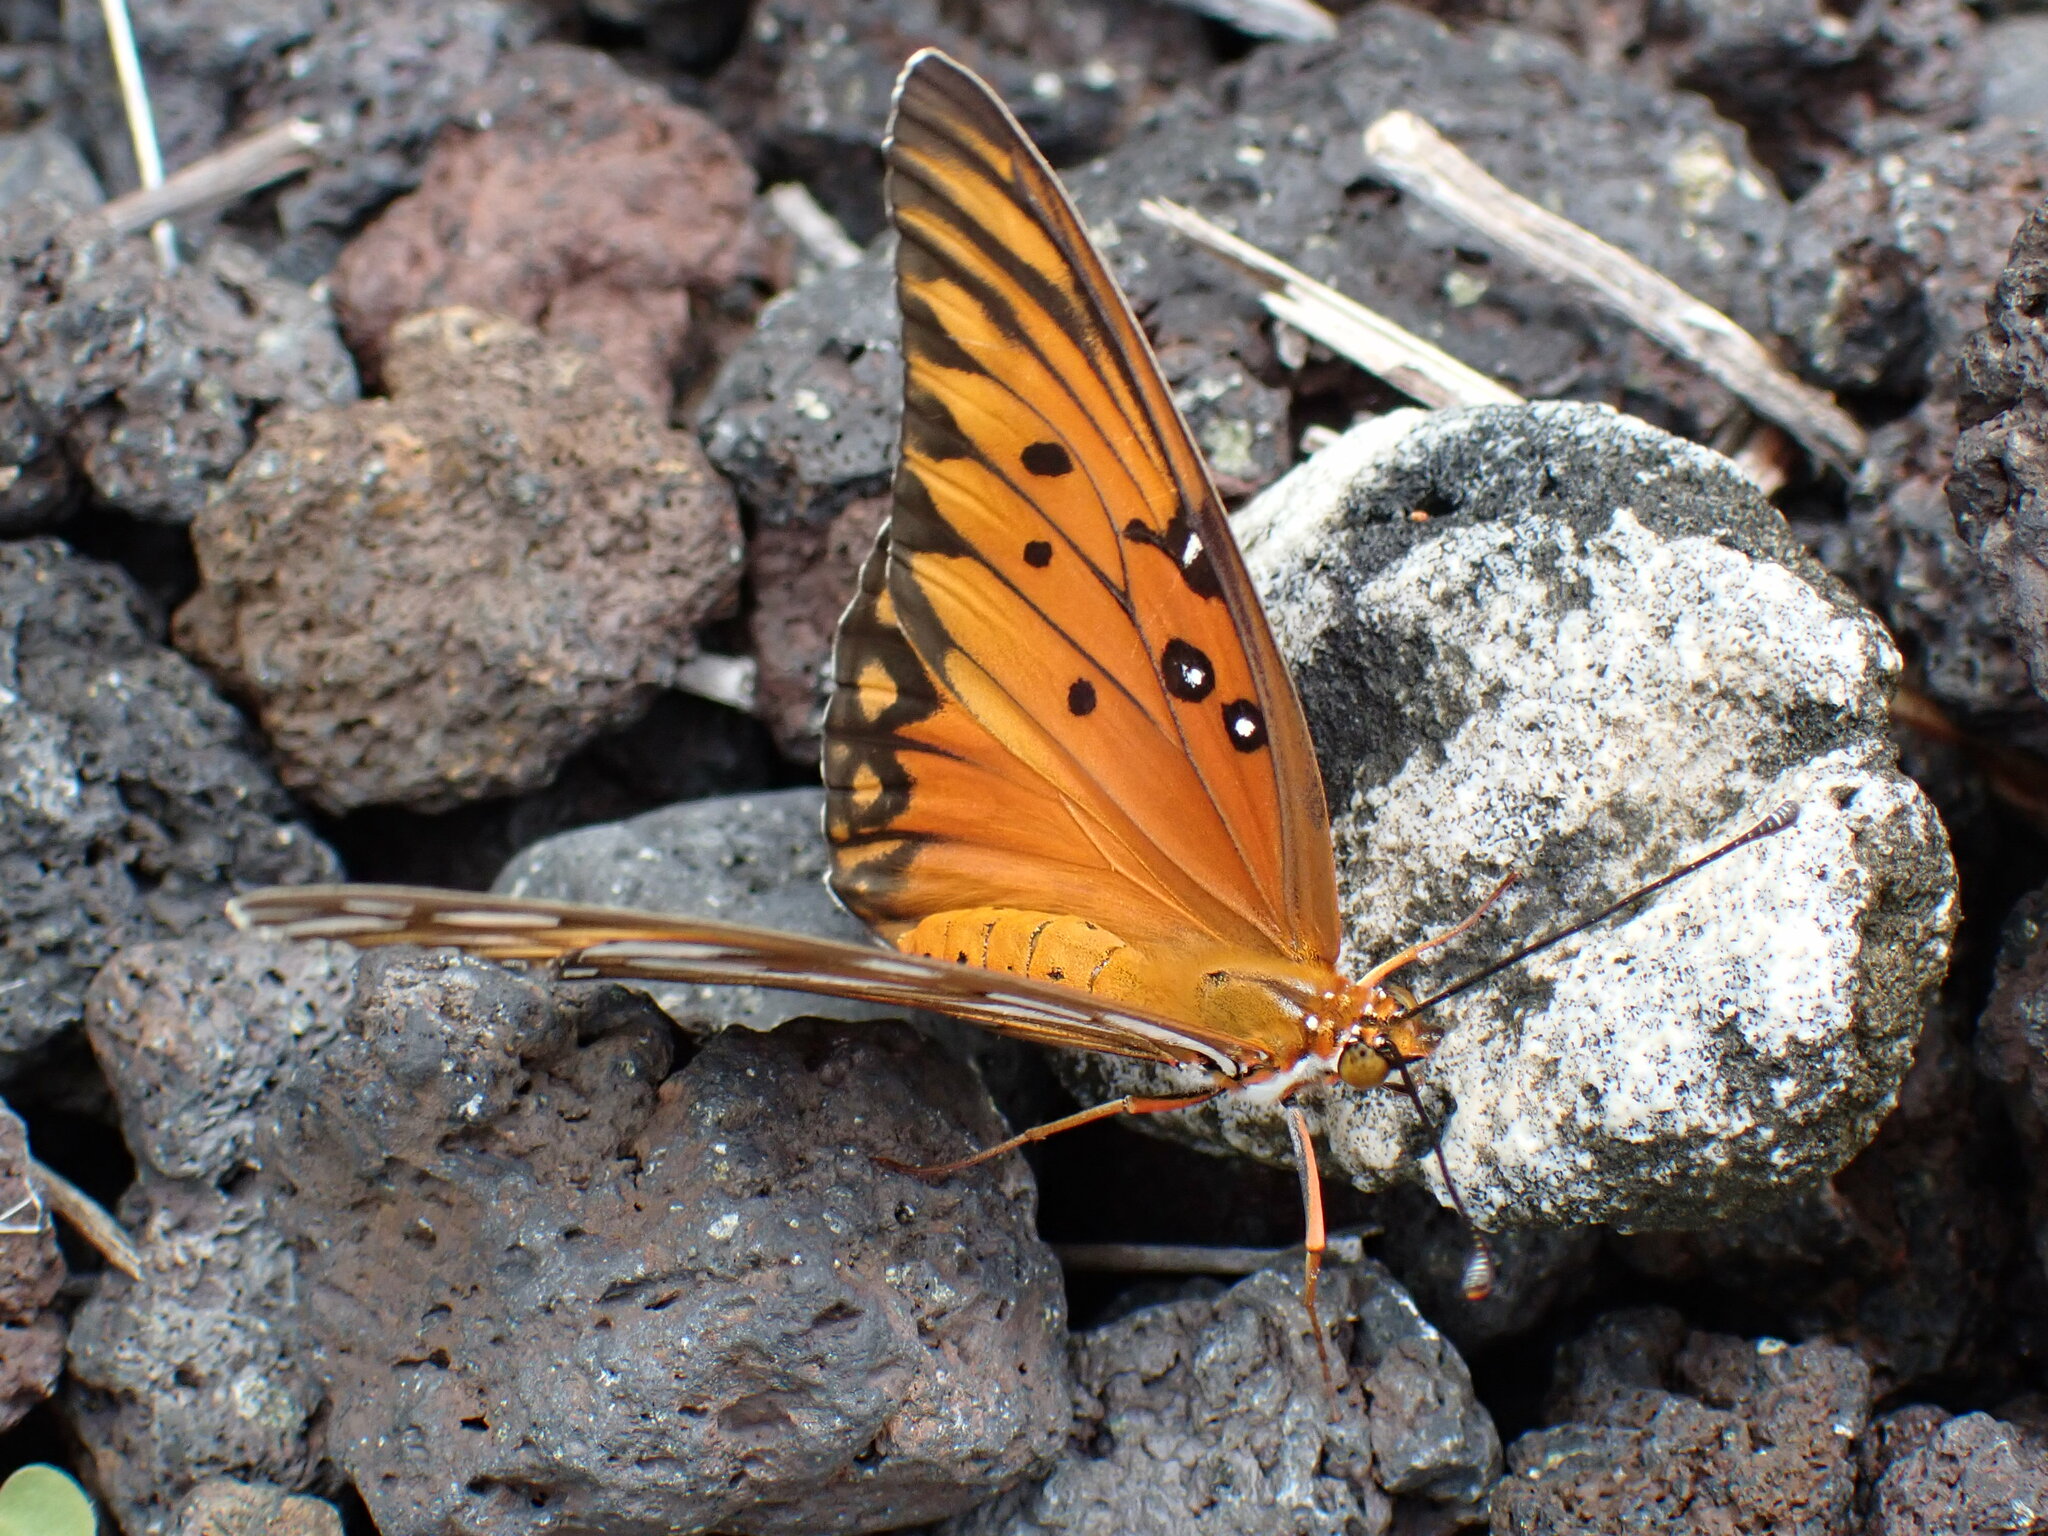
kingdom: Animalia
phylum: Arthropoda
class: Insecta
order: Lepidoptera
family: Nymphalidae
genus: Dione
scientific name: Dione vanillae
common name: Gulf fritillary
